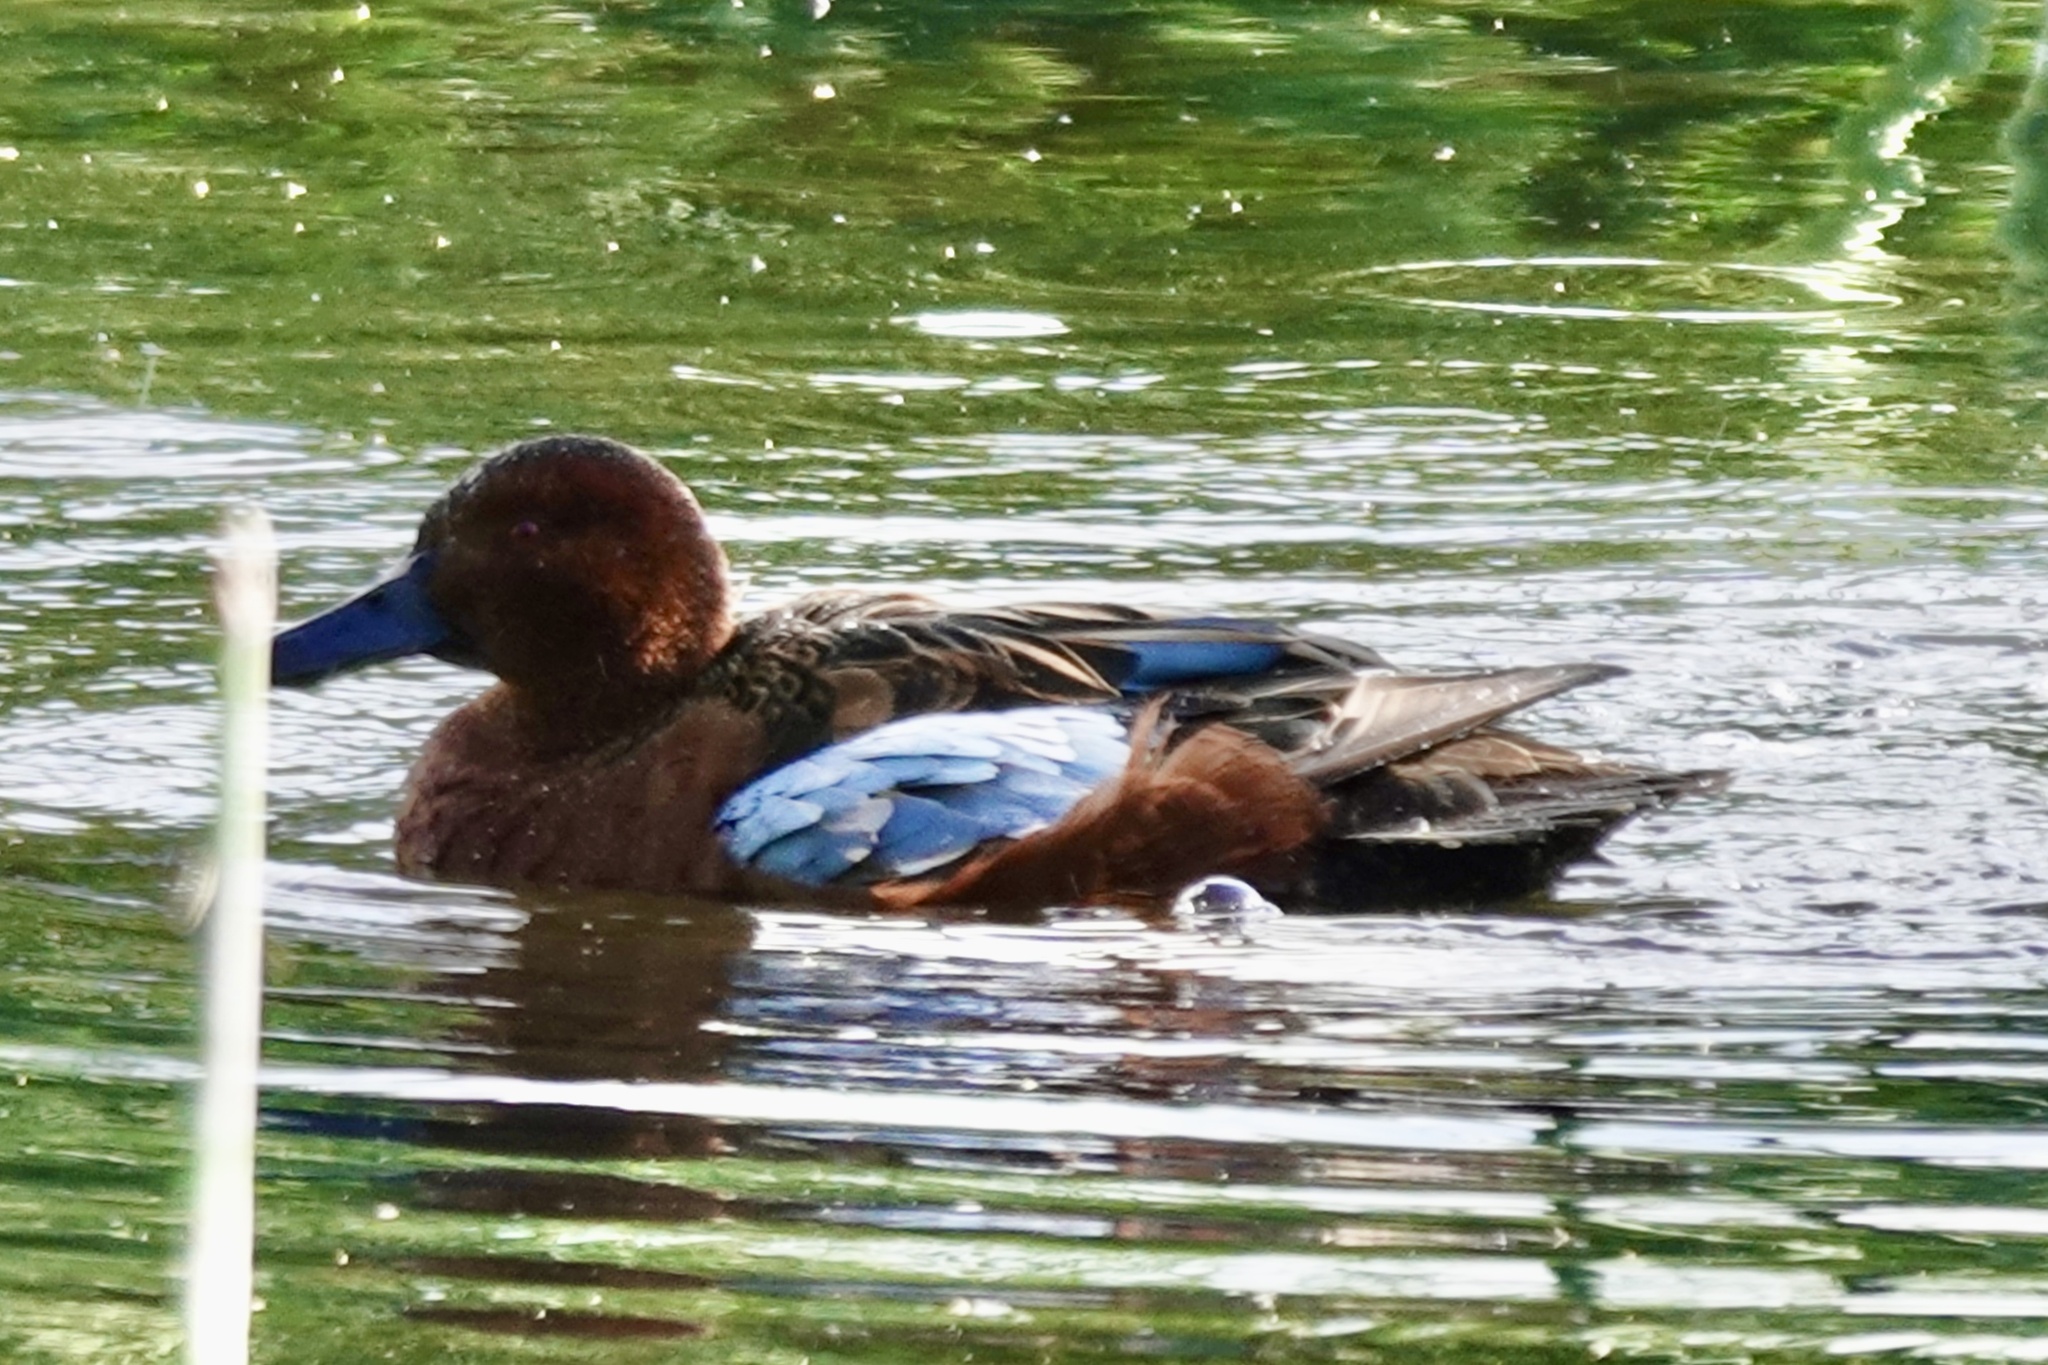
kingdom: Animalia
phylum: Chordata
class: Aves
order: Anseriformes
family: Anatidae
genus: Spatula
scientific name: Spatula cyanoptera
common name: Cinnamon teal
